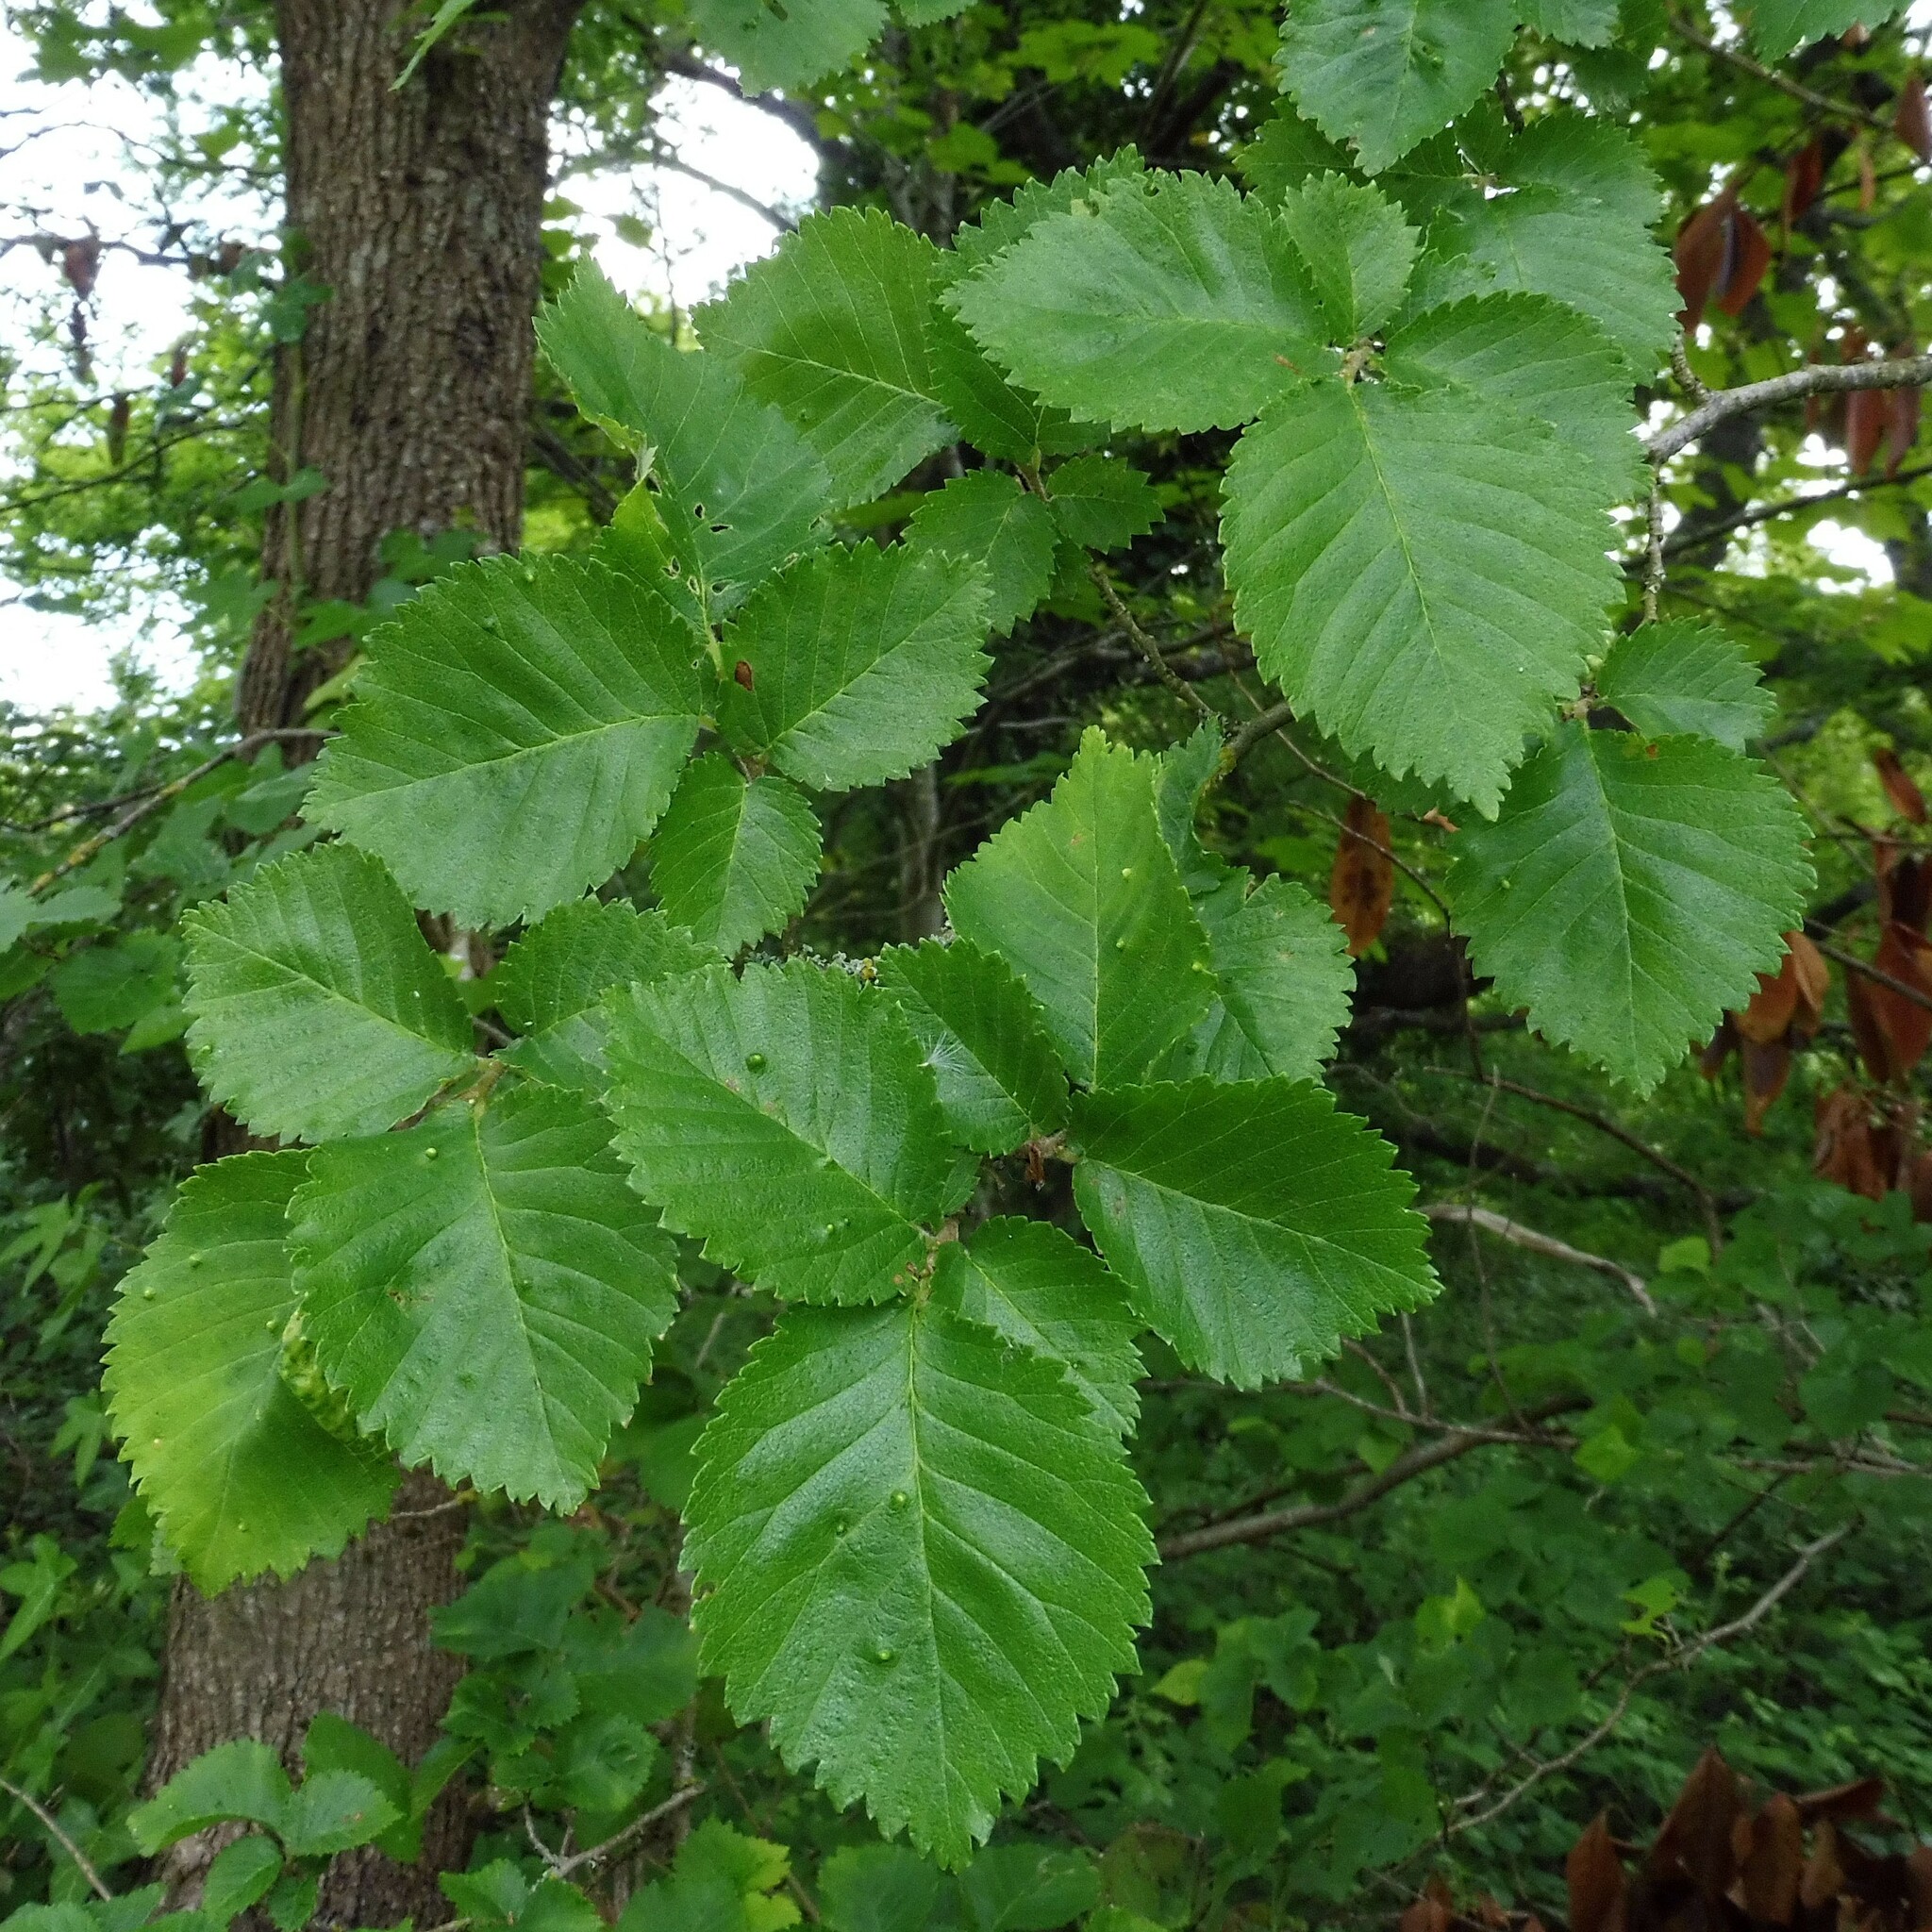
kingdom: Plantae
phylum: Tracheophyta
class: Magnoliopsida
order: Rosales
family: Ulmaceae
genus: Ulmus
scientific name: Ulmus minor
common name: Small-leaved elm
